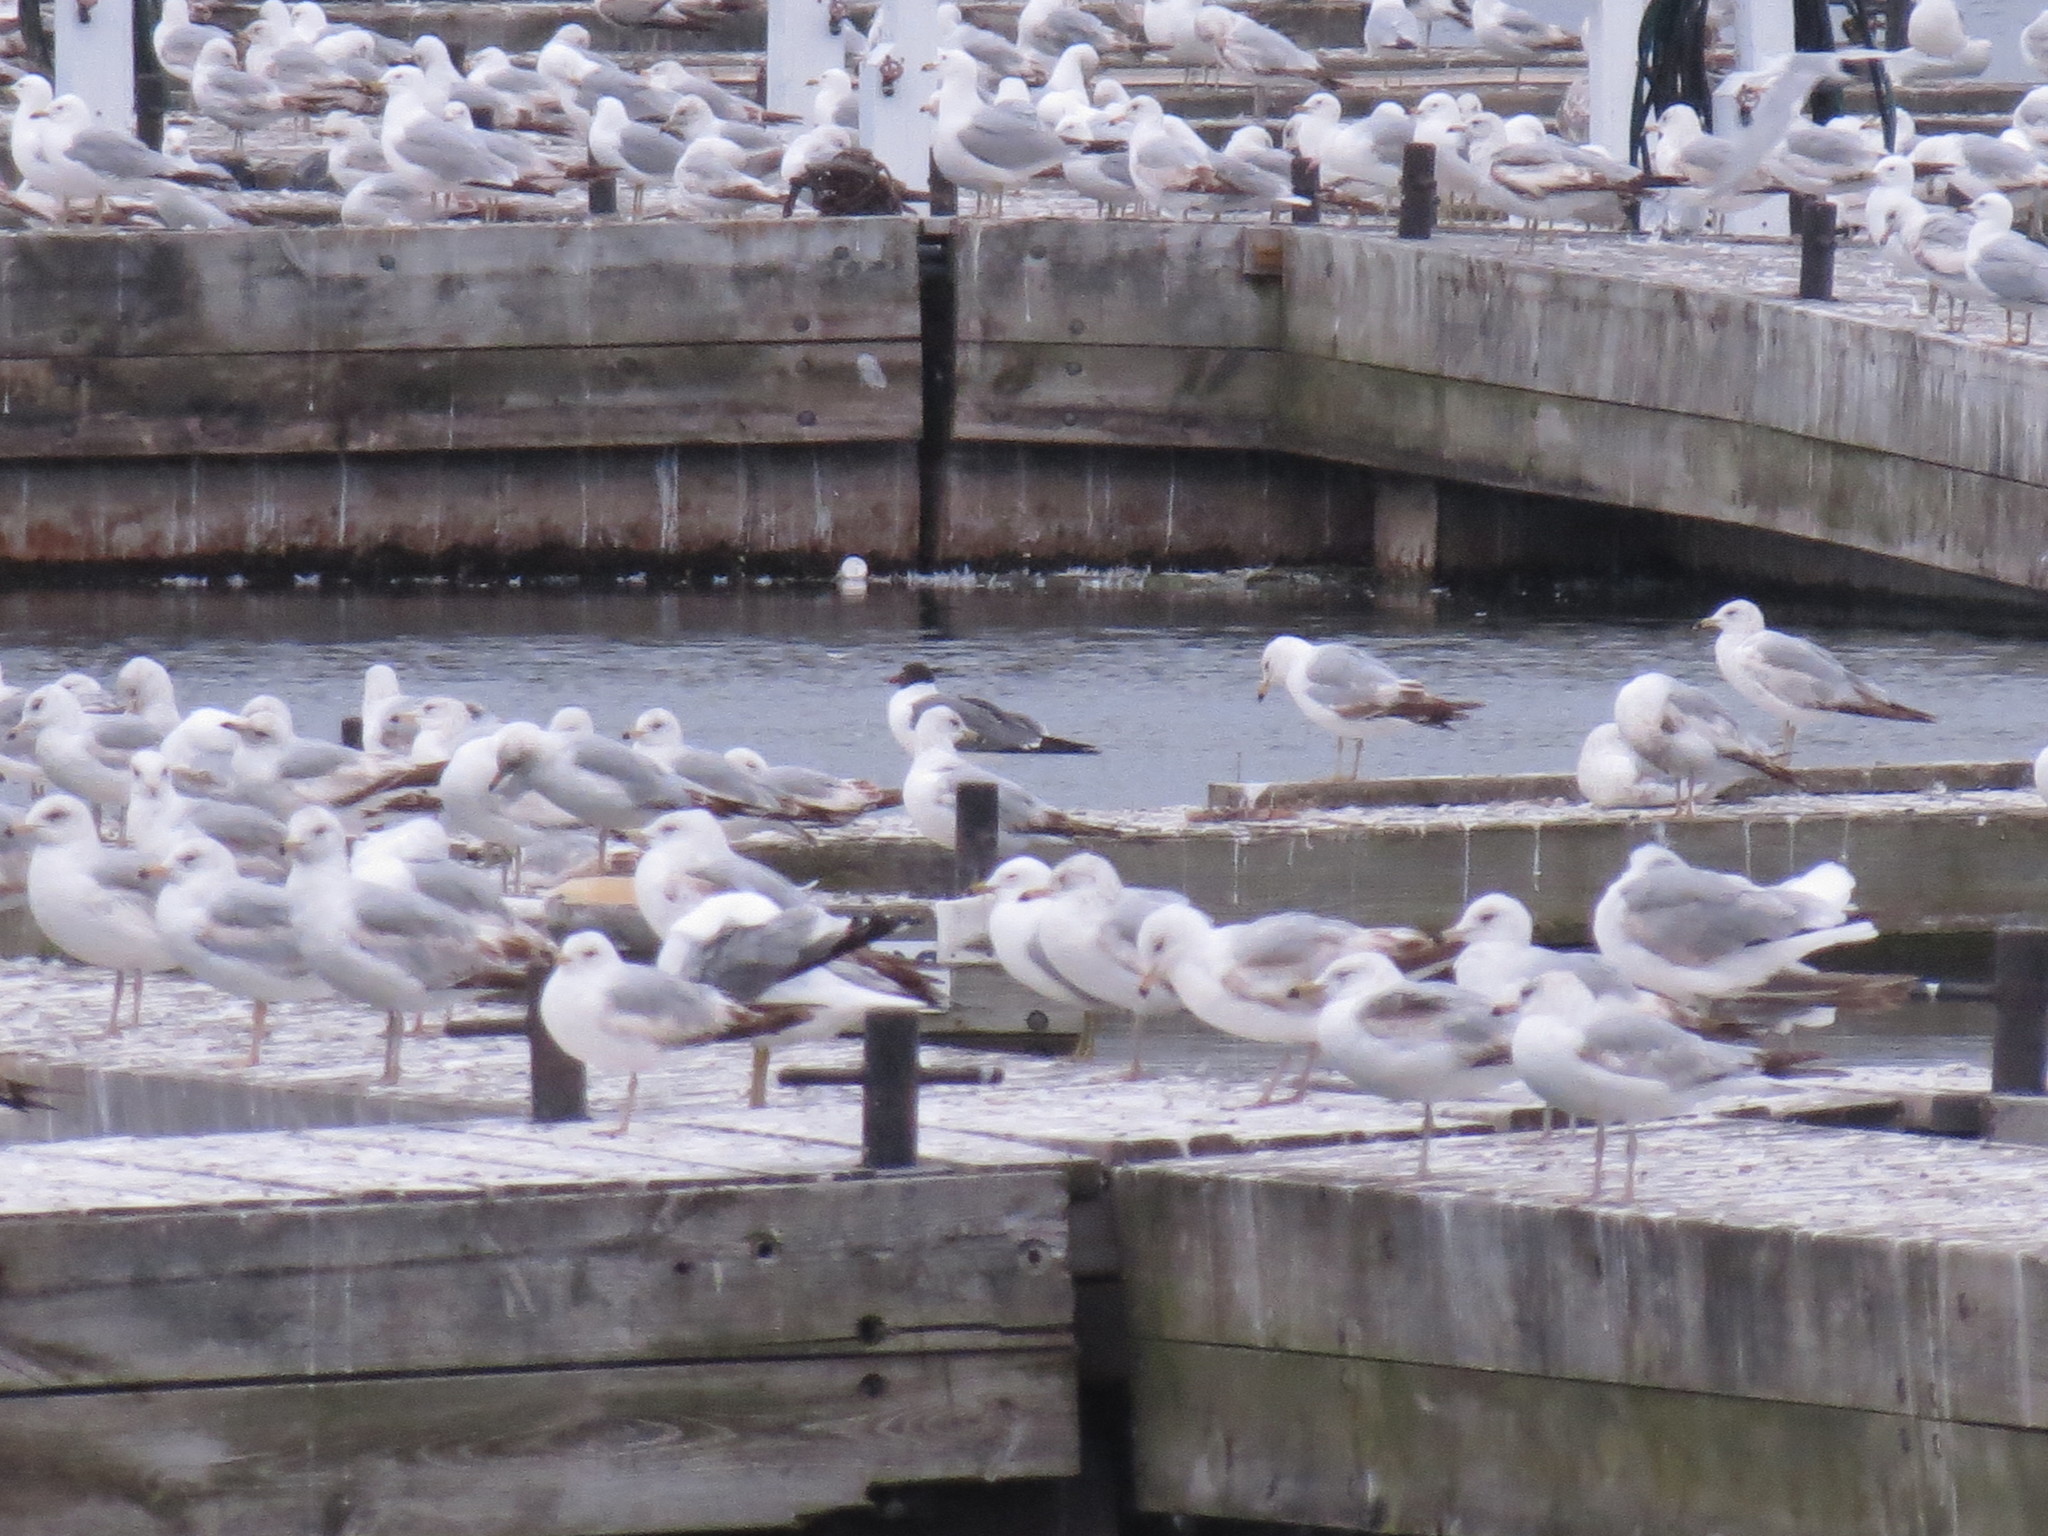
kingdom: Animalia
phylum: Chordata
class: Aves
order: Charadriiformes
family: Laridae
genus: Larus
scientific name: Larus delawarensis
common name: Ring-billed gull
